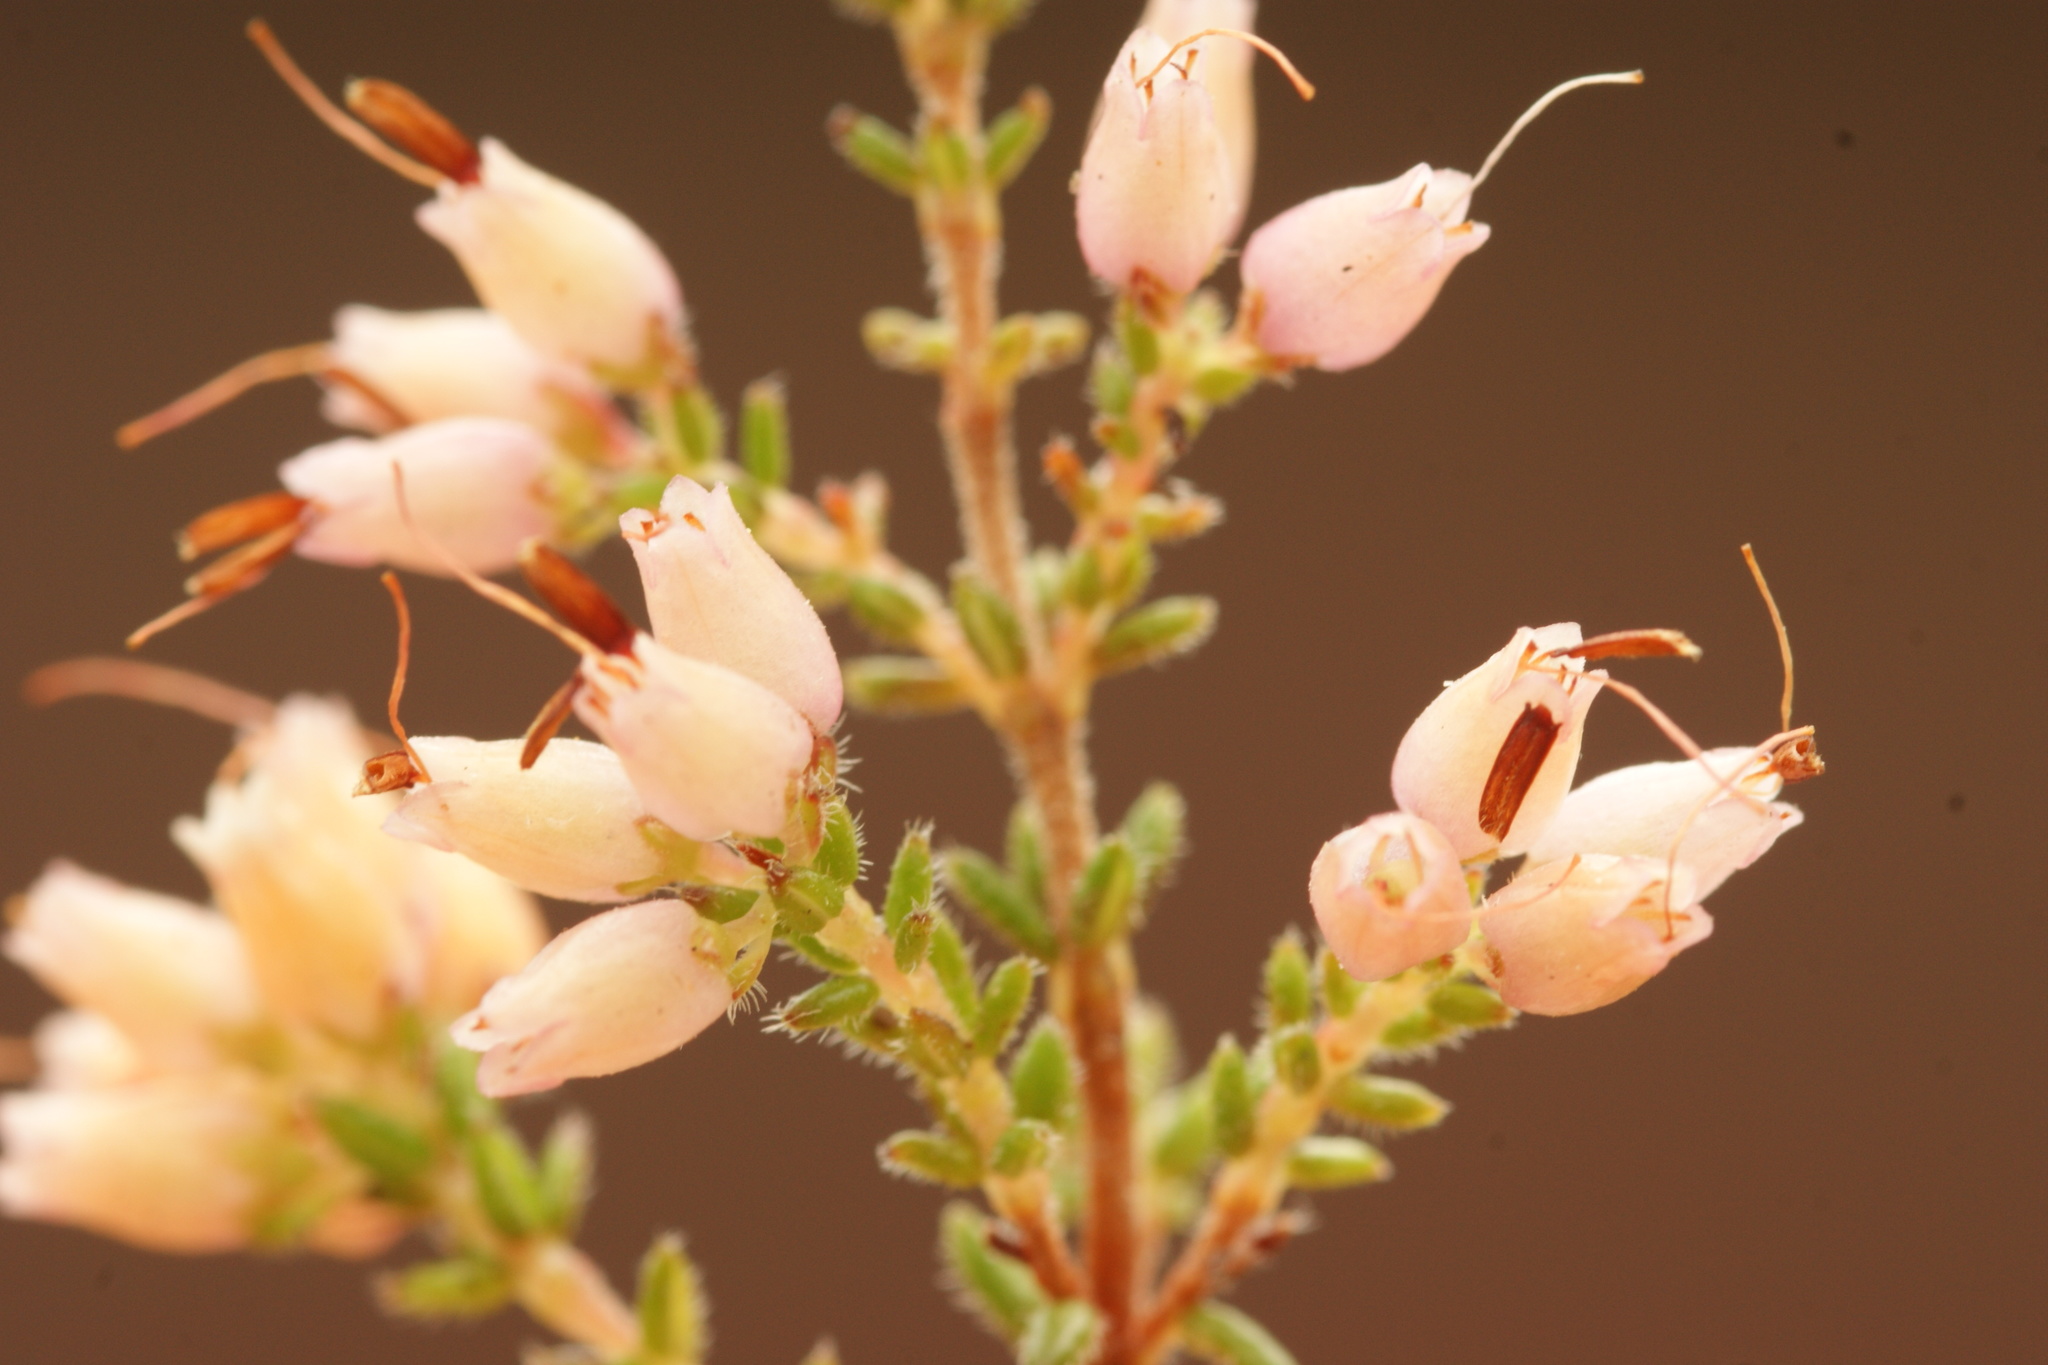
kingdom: Plantae
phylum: Tracheophyta
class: Magnoliopsida
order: Ericales
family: Ericaceae
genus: Erica
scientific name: Erica interrupta
